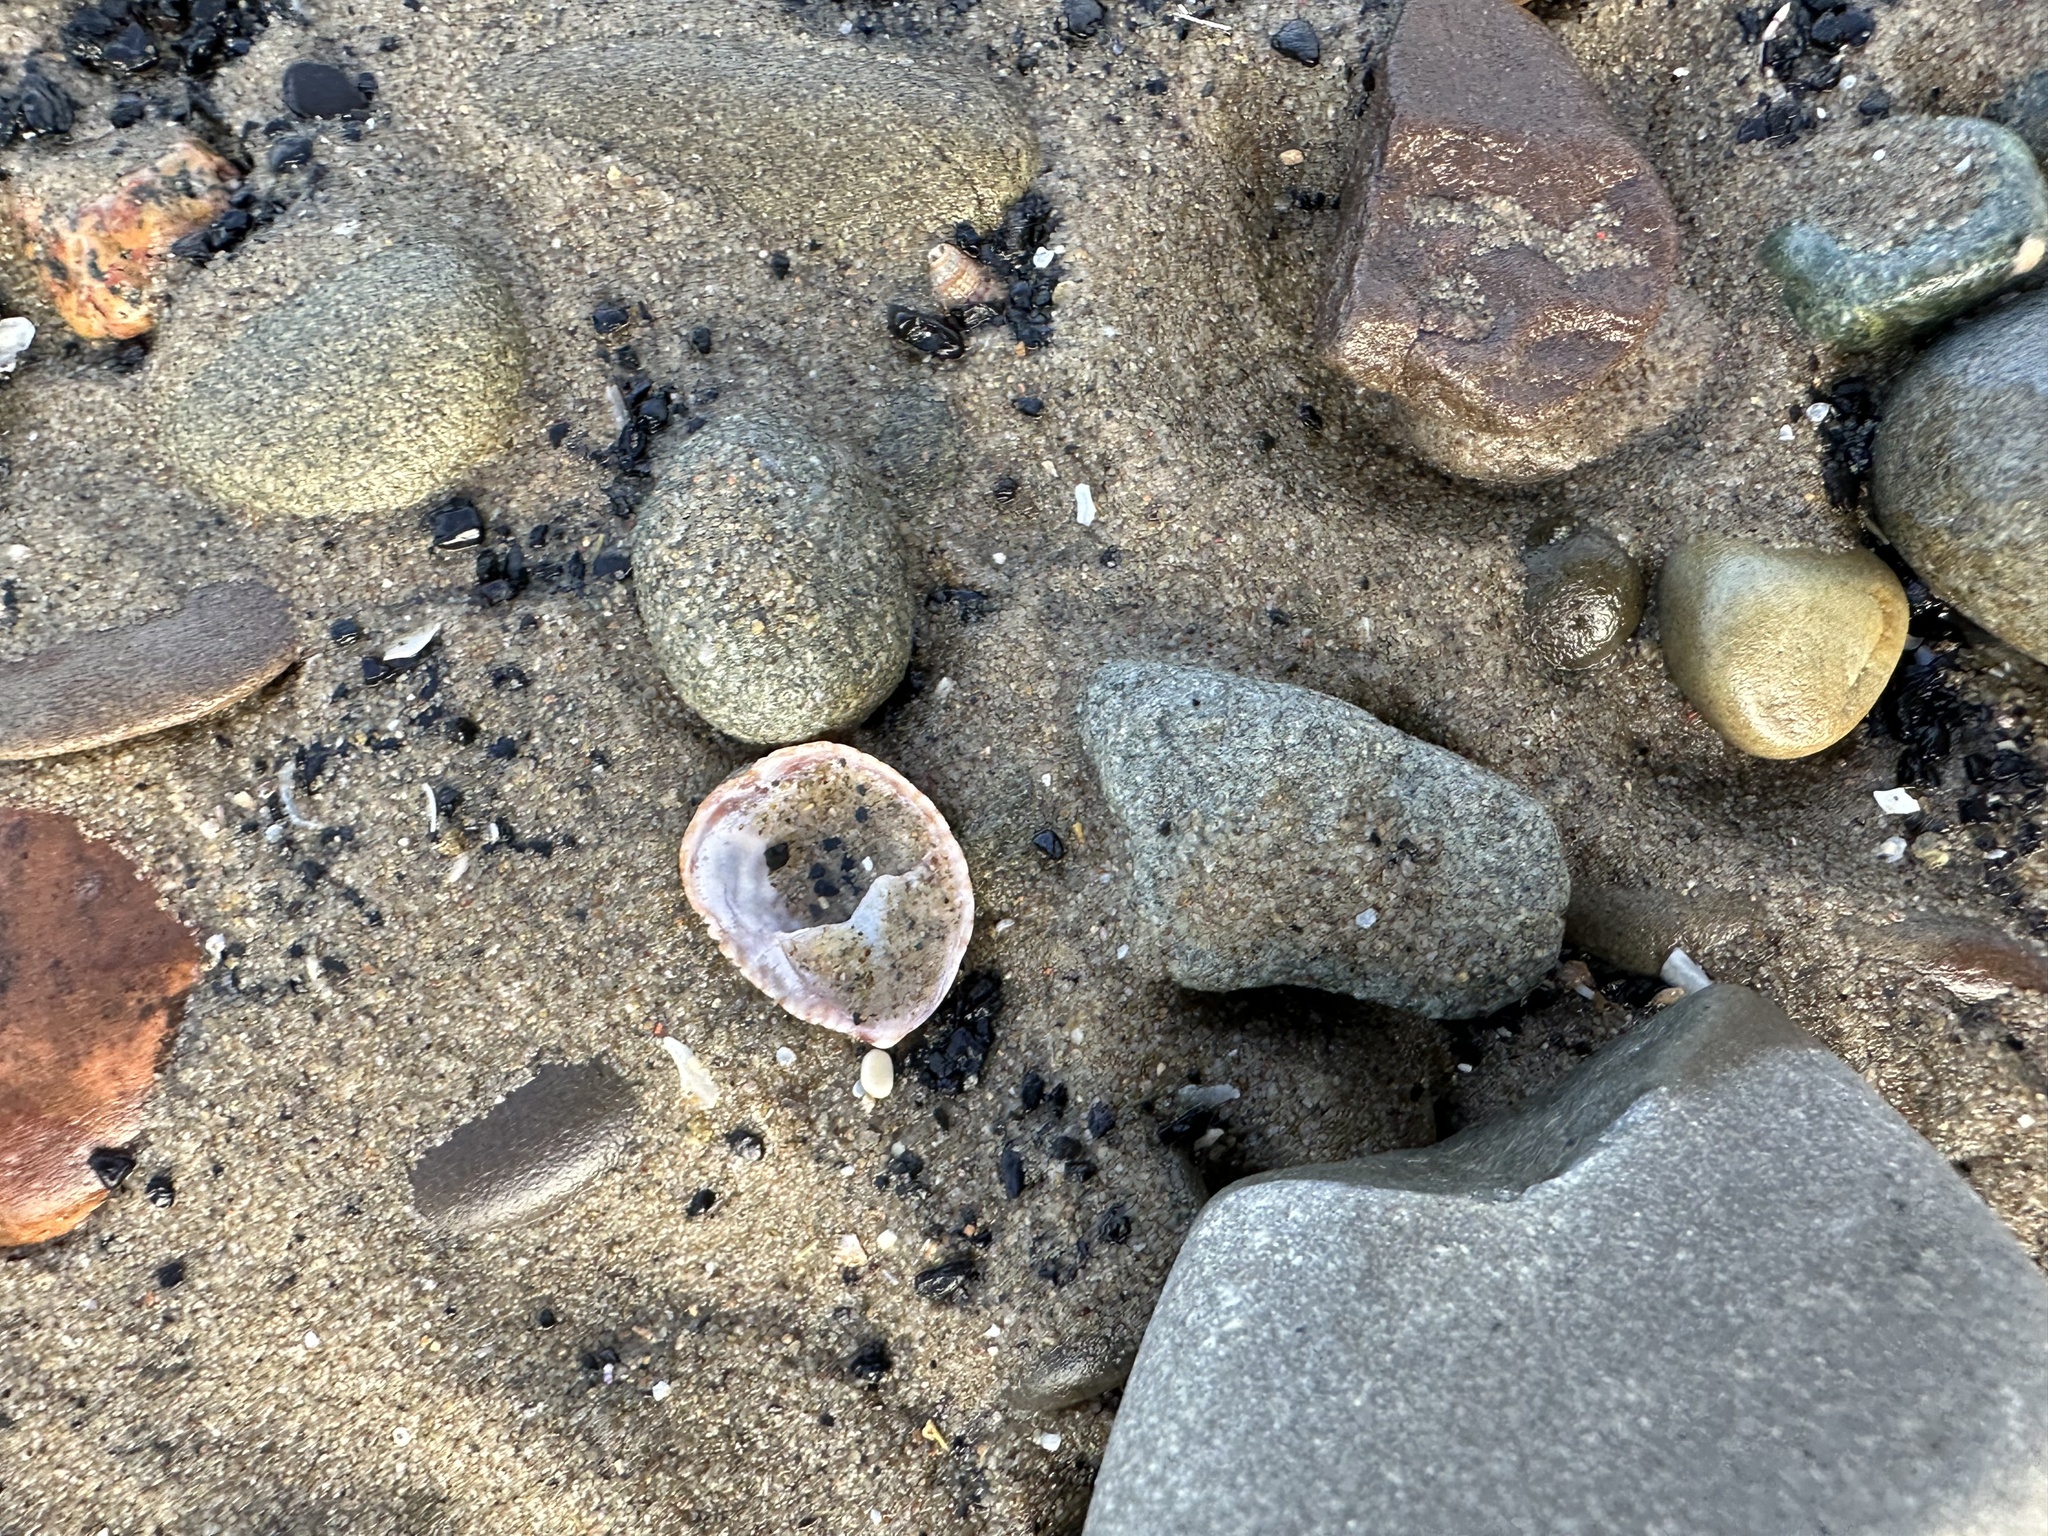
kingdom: Animalia
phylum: Mollusca
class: Gastropoda
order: Littorinimorpha
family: Calyptraeidae
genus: Crepidula
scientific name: Crepidula fornicata
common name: Slipper limpet
